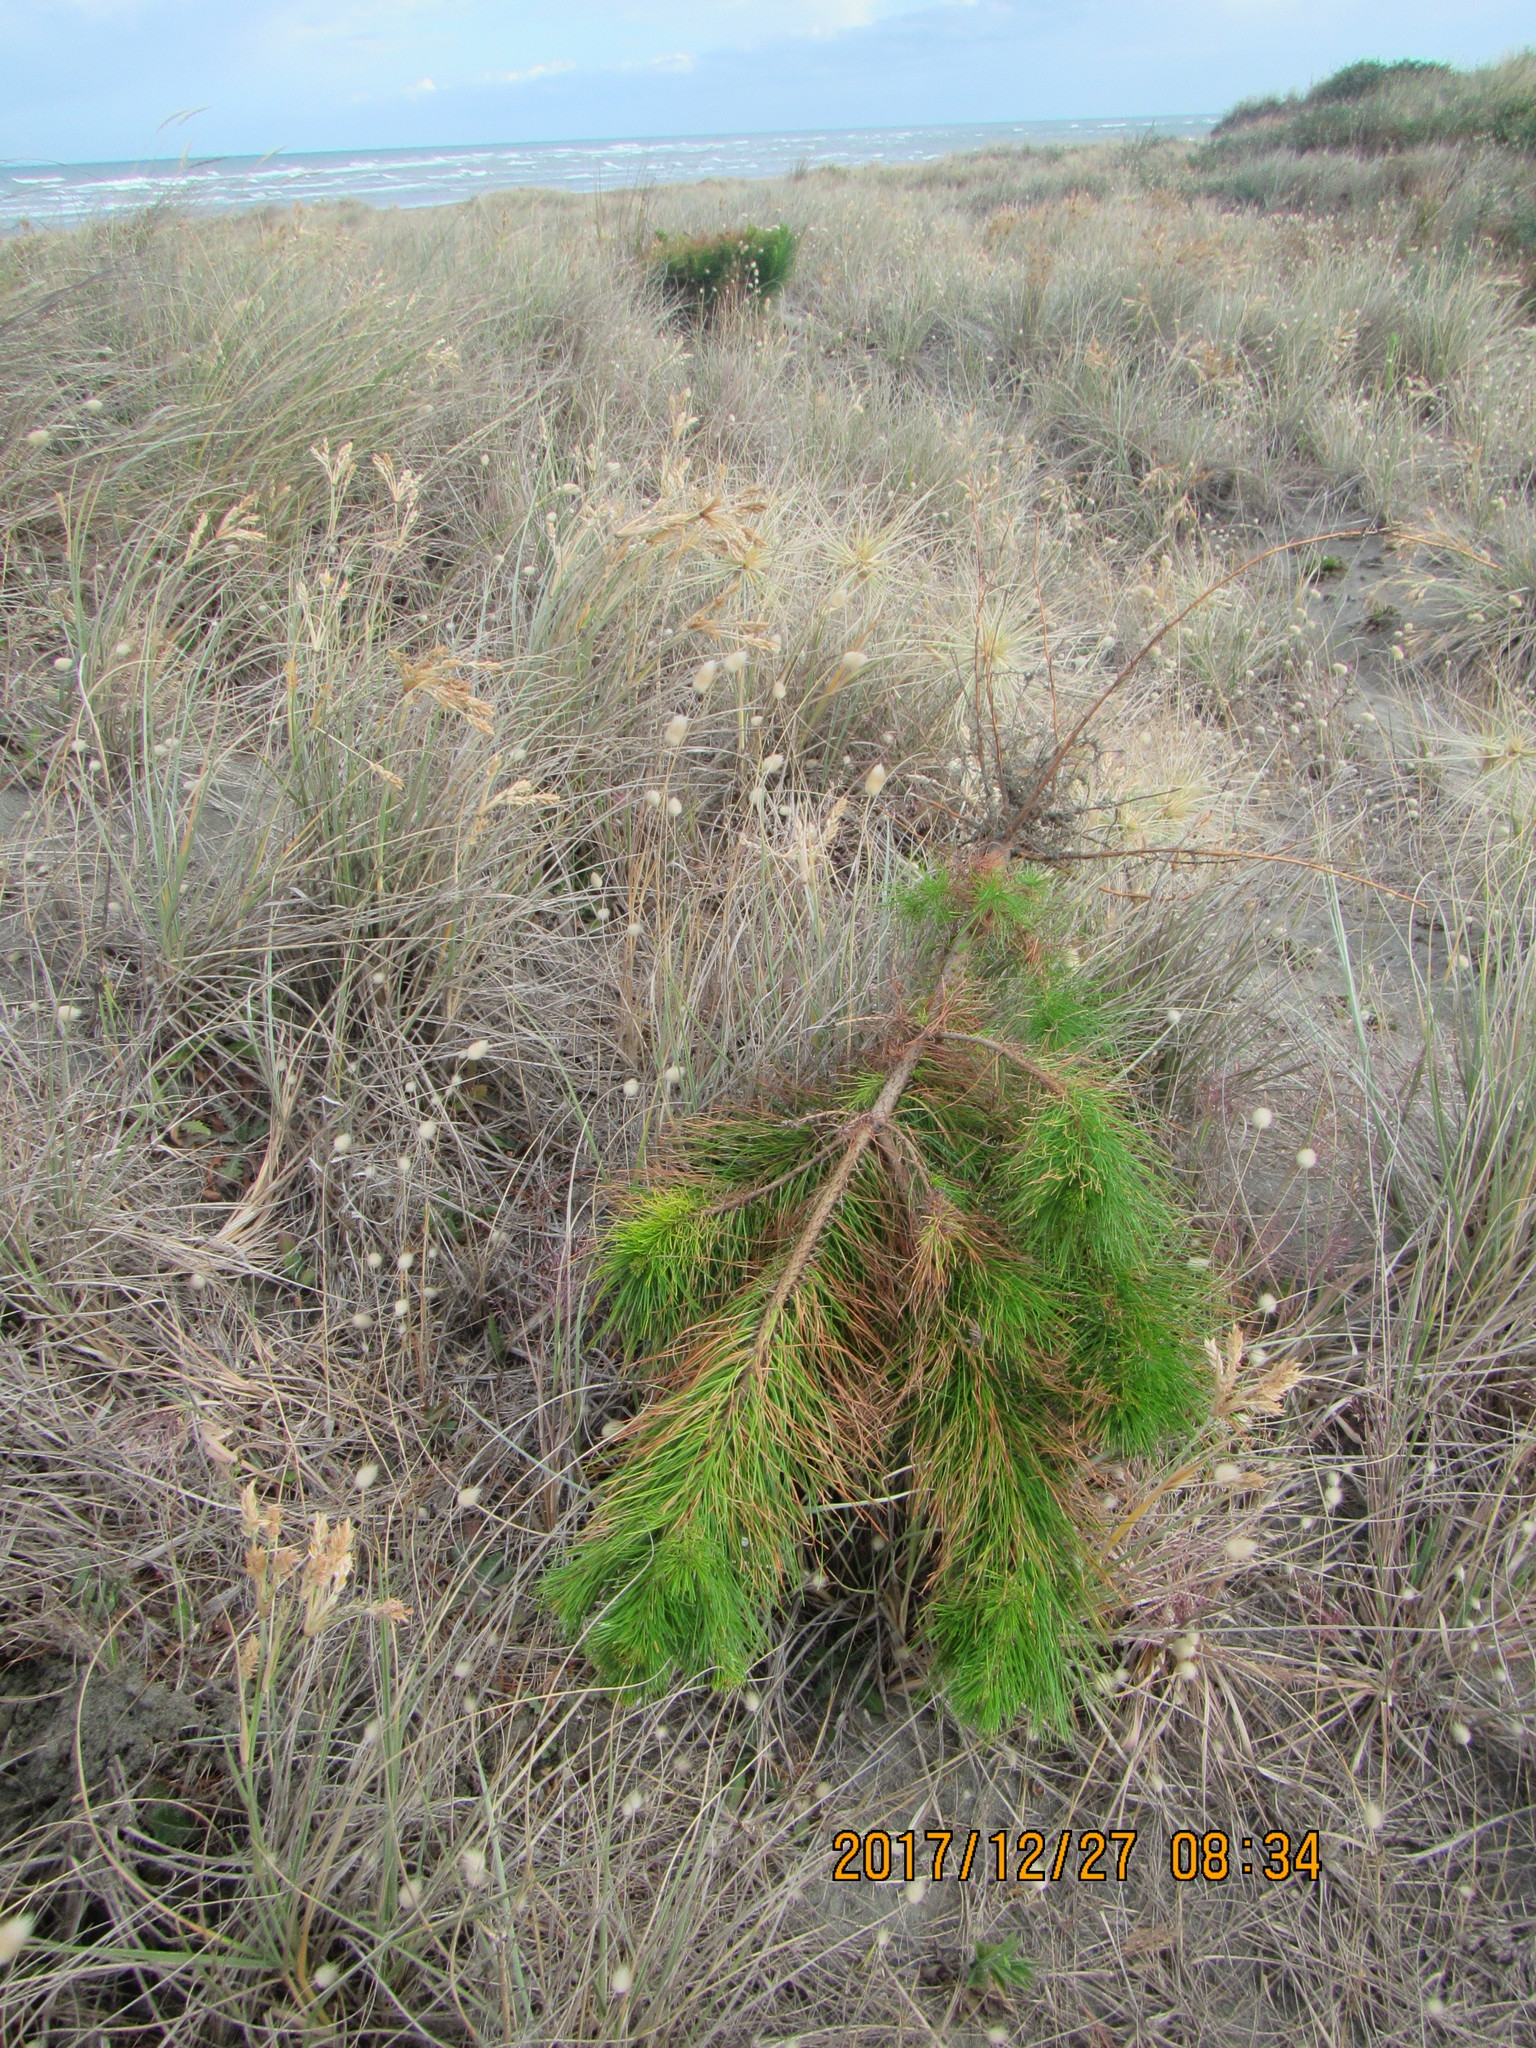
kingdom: Plantae
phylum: Tracheophyta
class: Pinopsida
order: Pinales
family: Pinaceae
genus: Pinus
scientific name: Pinus radiata
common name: Monterey pine
